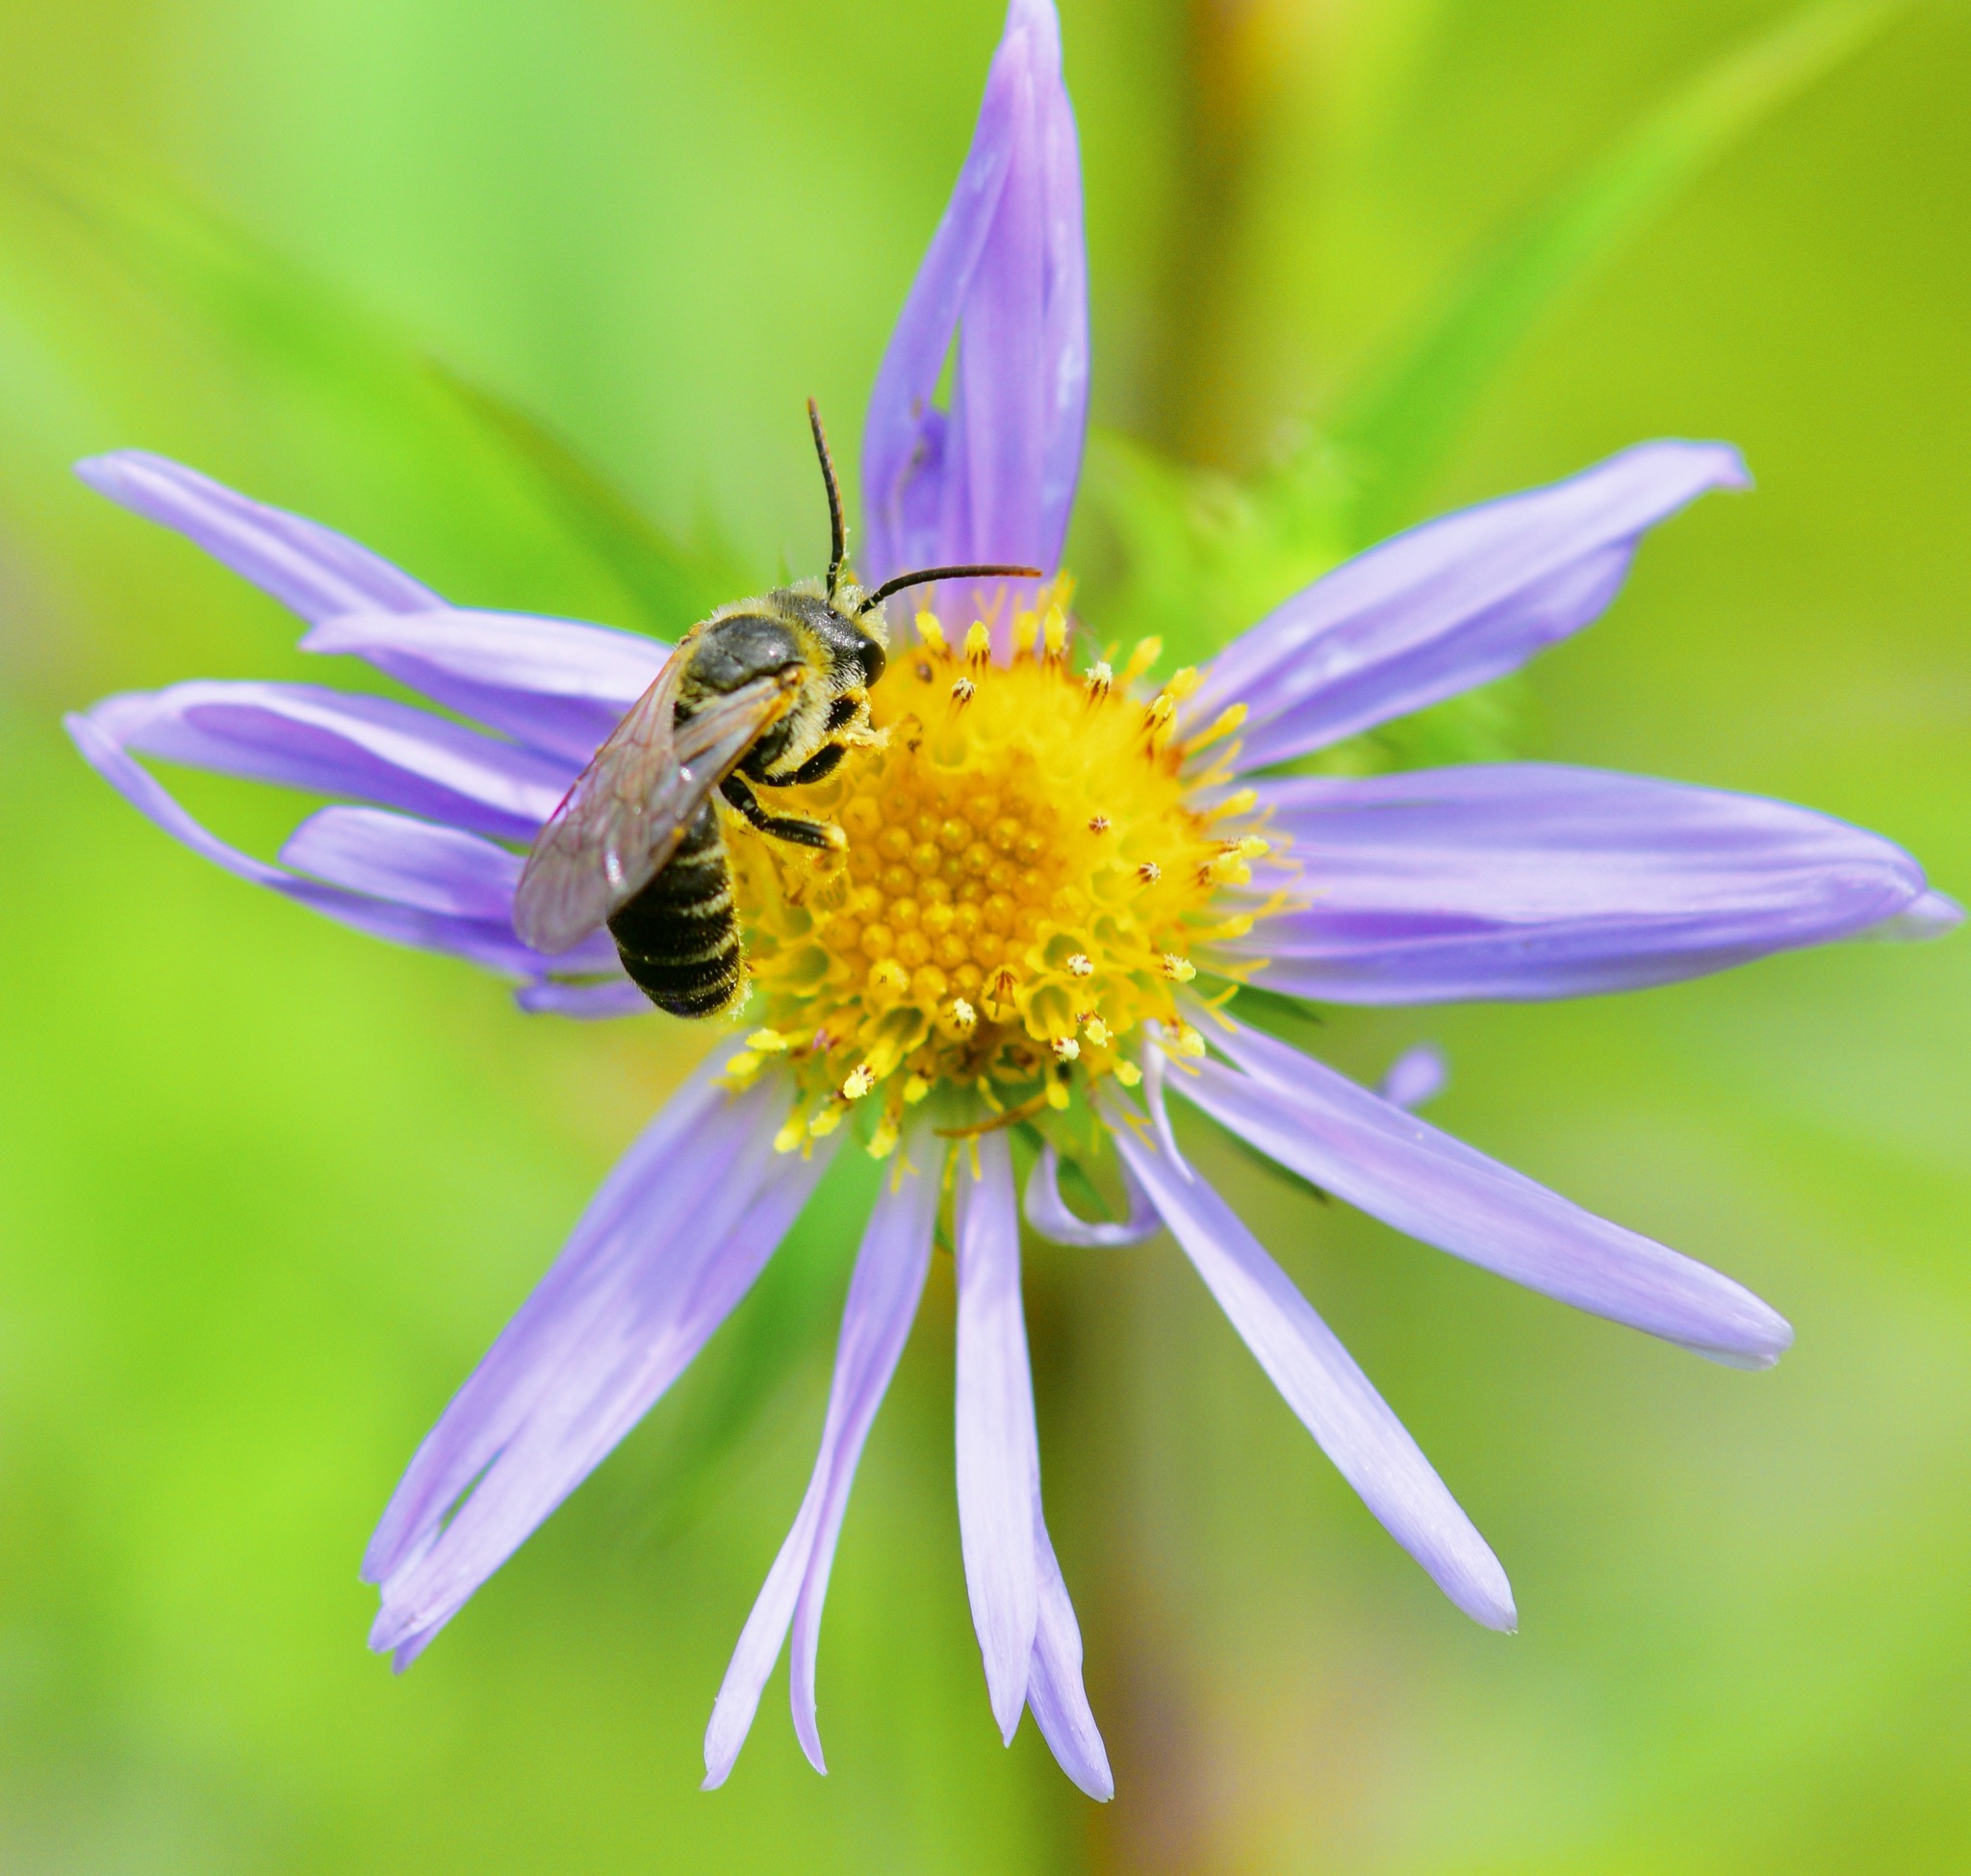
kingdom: Animalia
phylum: Arthropoda
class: Insecta
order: Hymenoptera
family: Halictidae
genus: Halictus
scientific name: Halictus ligatus
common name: Ligated furrow bee
